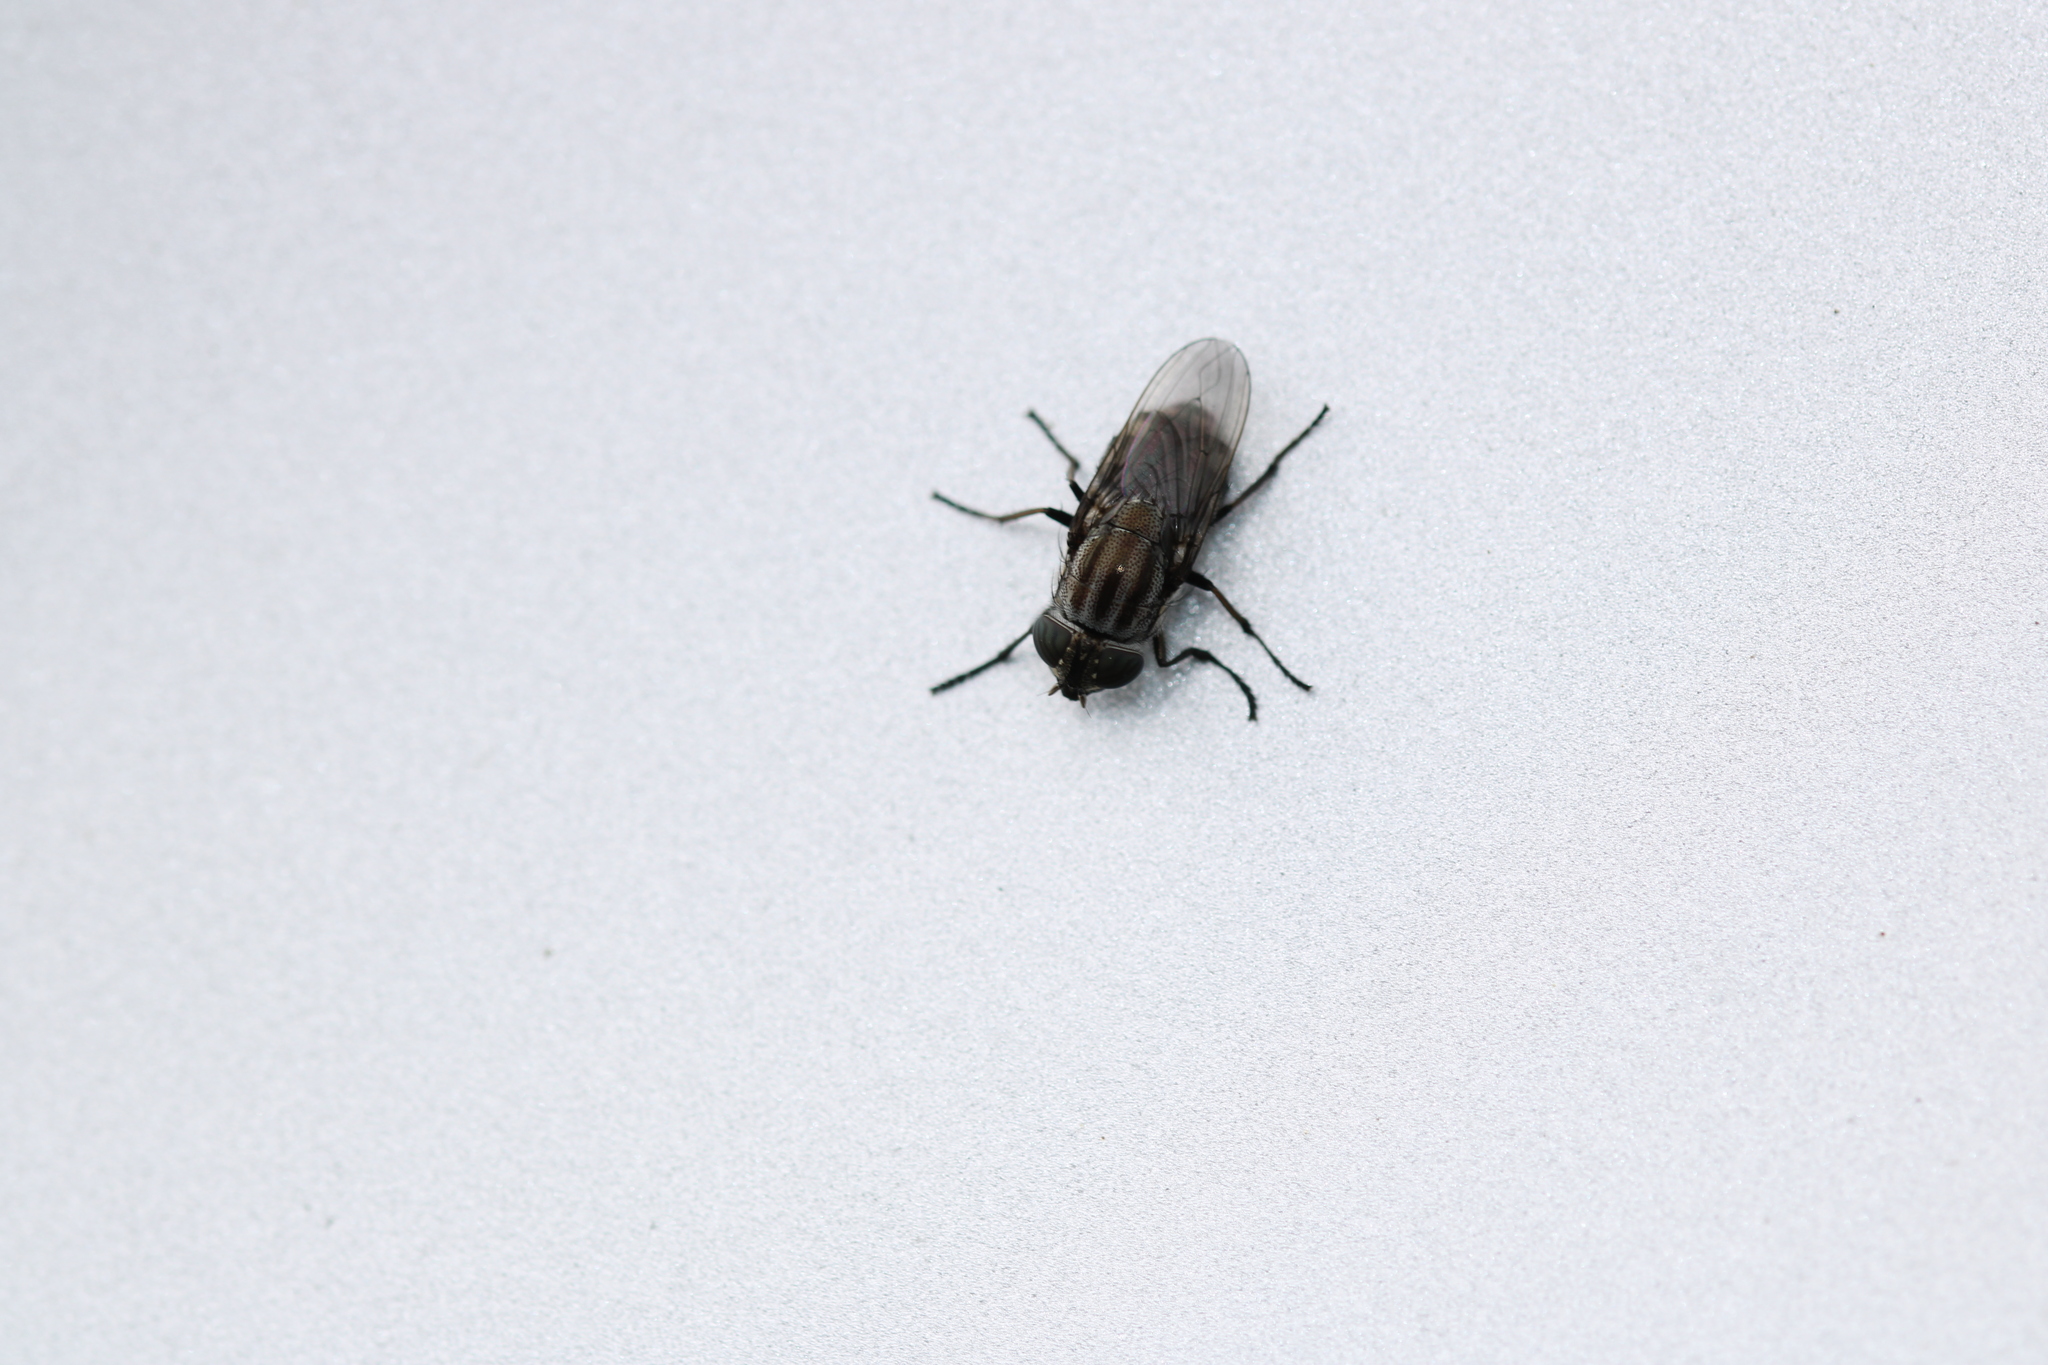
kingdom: Animalia
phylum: Arthropoda
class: Insecta
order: Diptera
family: Calliphoridae
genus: Stomorhina
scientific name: Stomorhina lunata
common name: Locust blowfly
